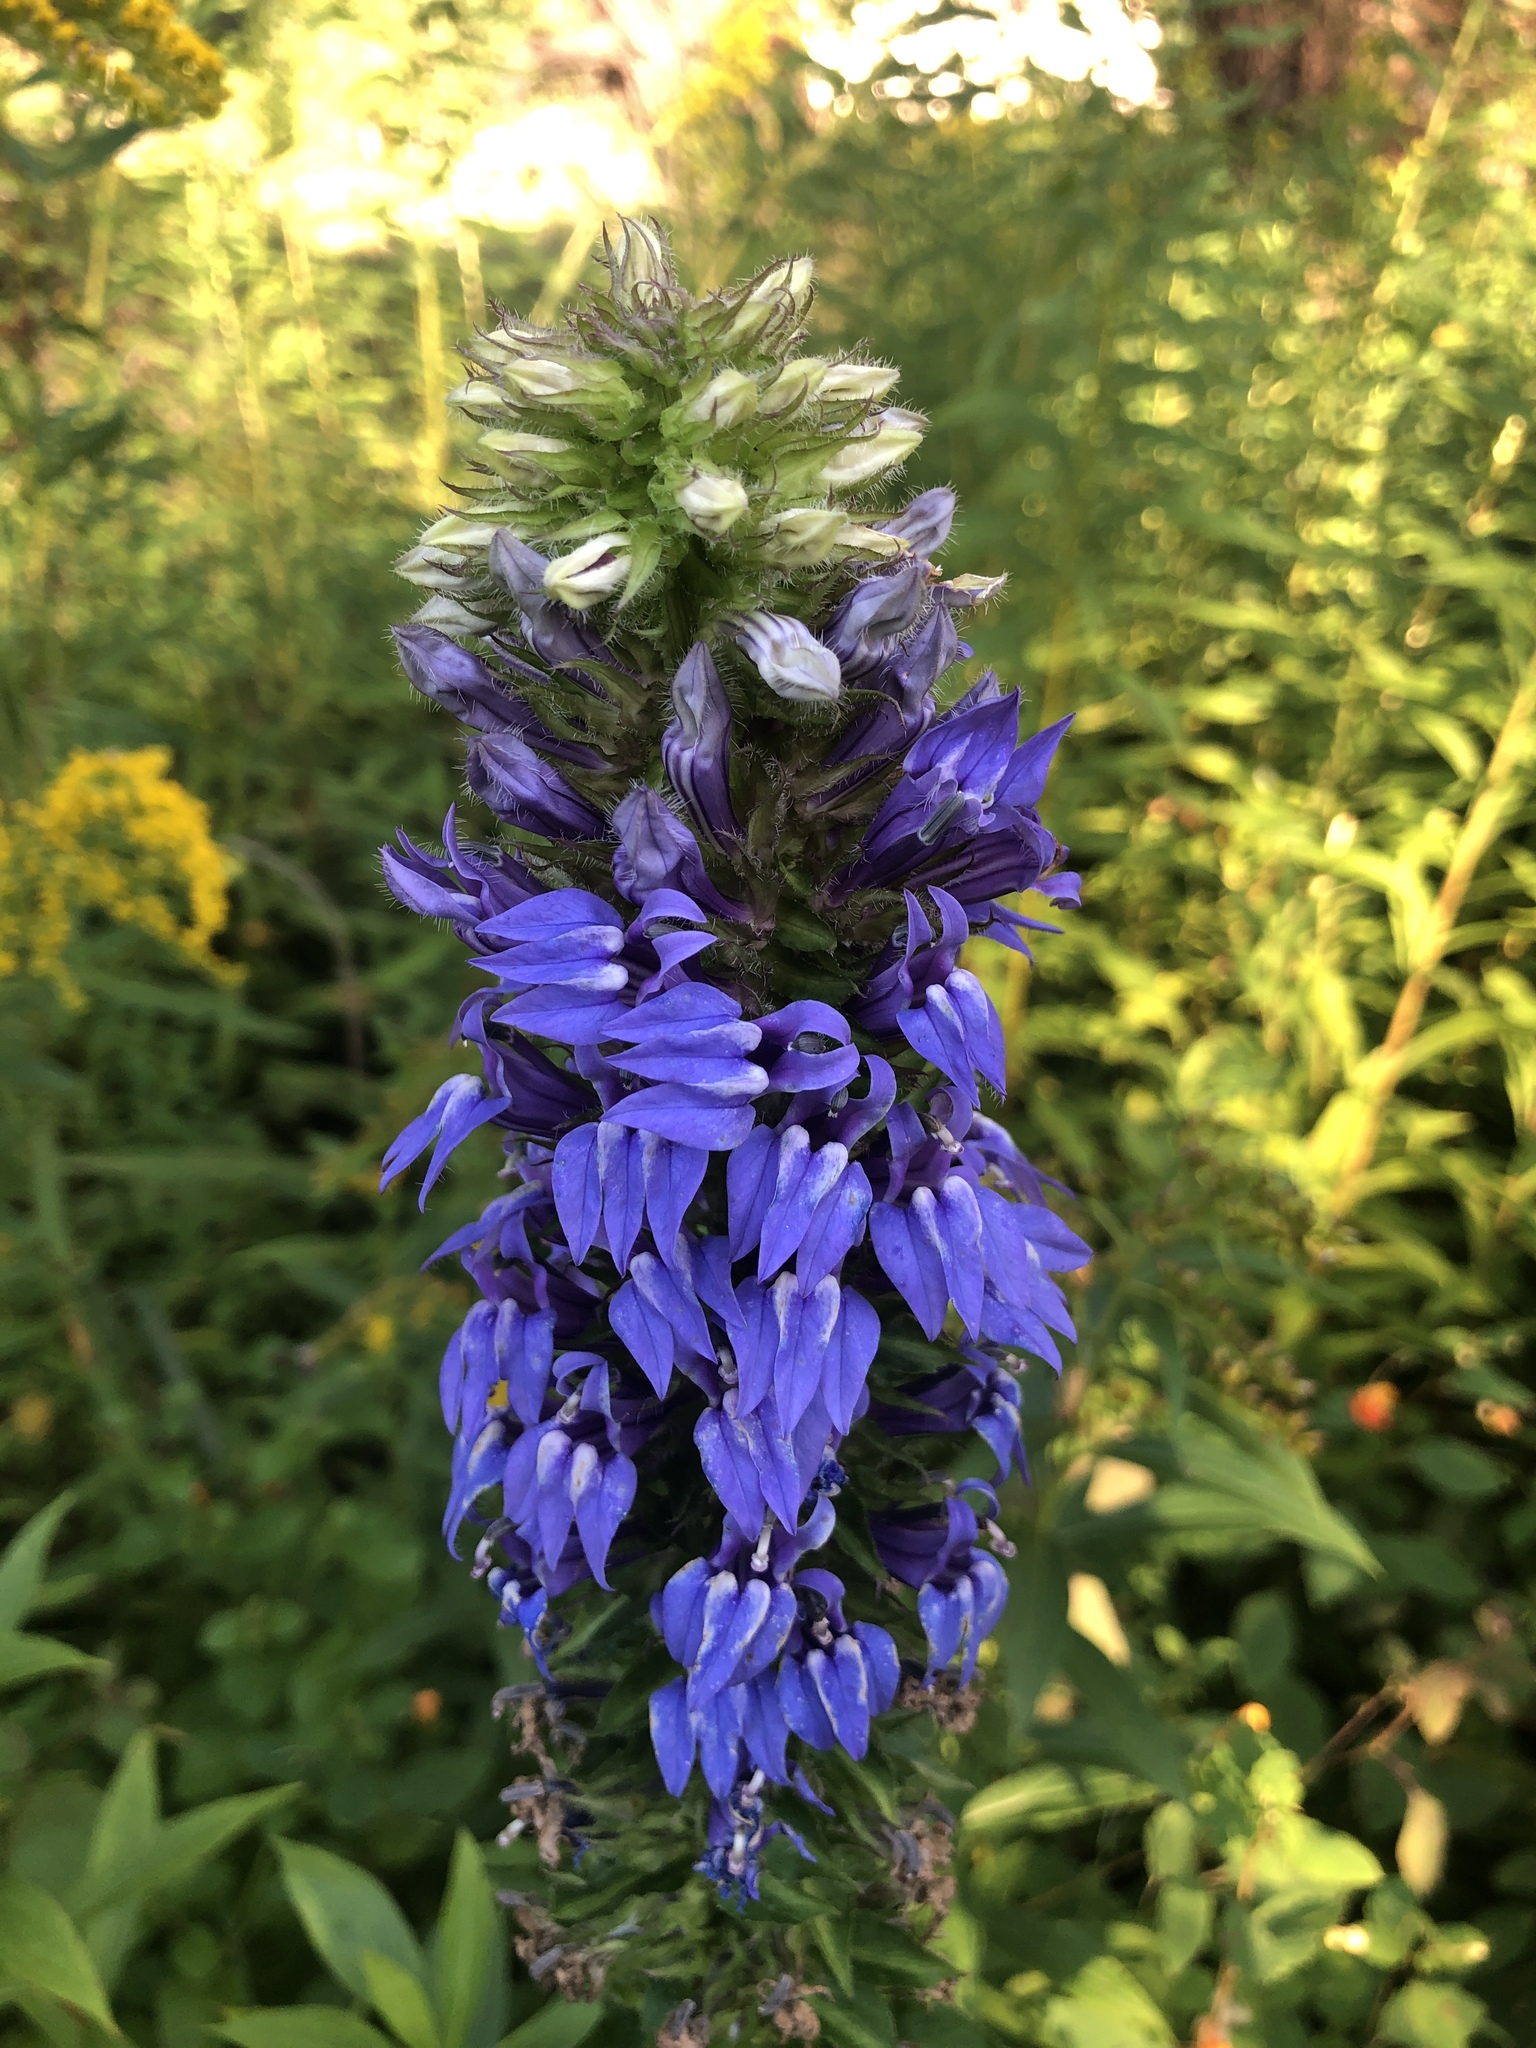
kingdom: Plantae
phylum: Tracheophyta
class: Magnoliopsida
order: Asterales
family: Campanulaceae
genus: Lobelia
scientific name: Lobelia siphilitica
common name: Great lobelia
